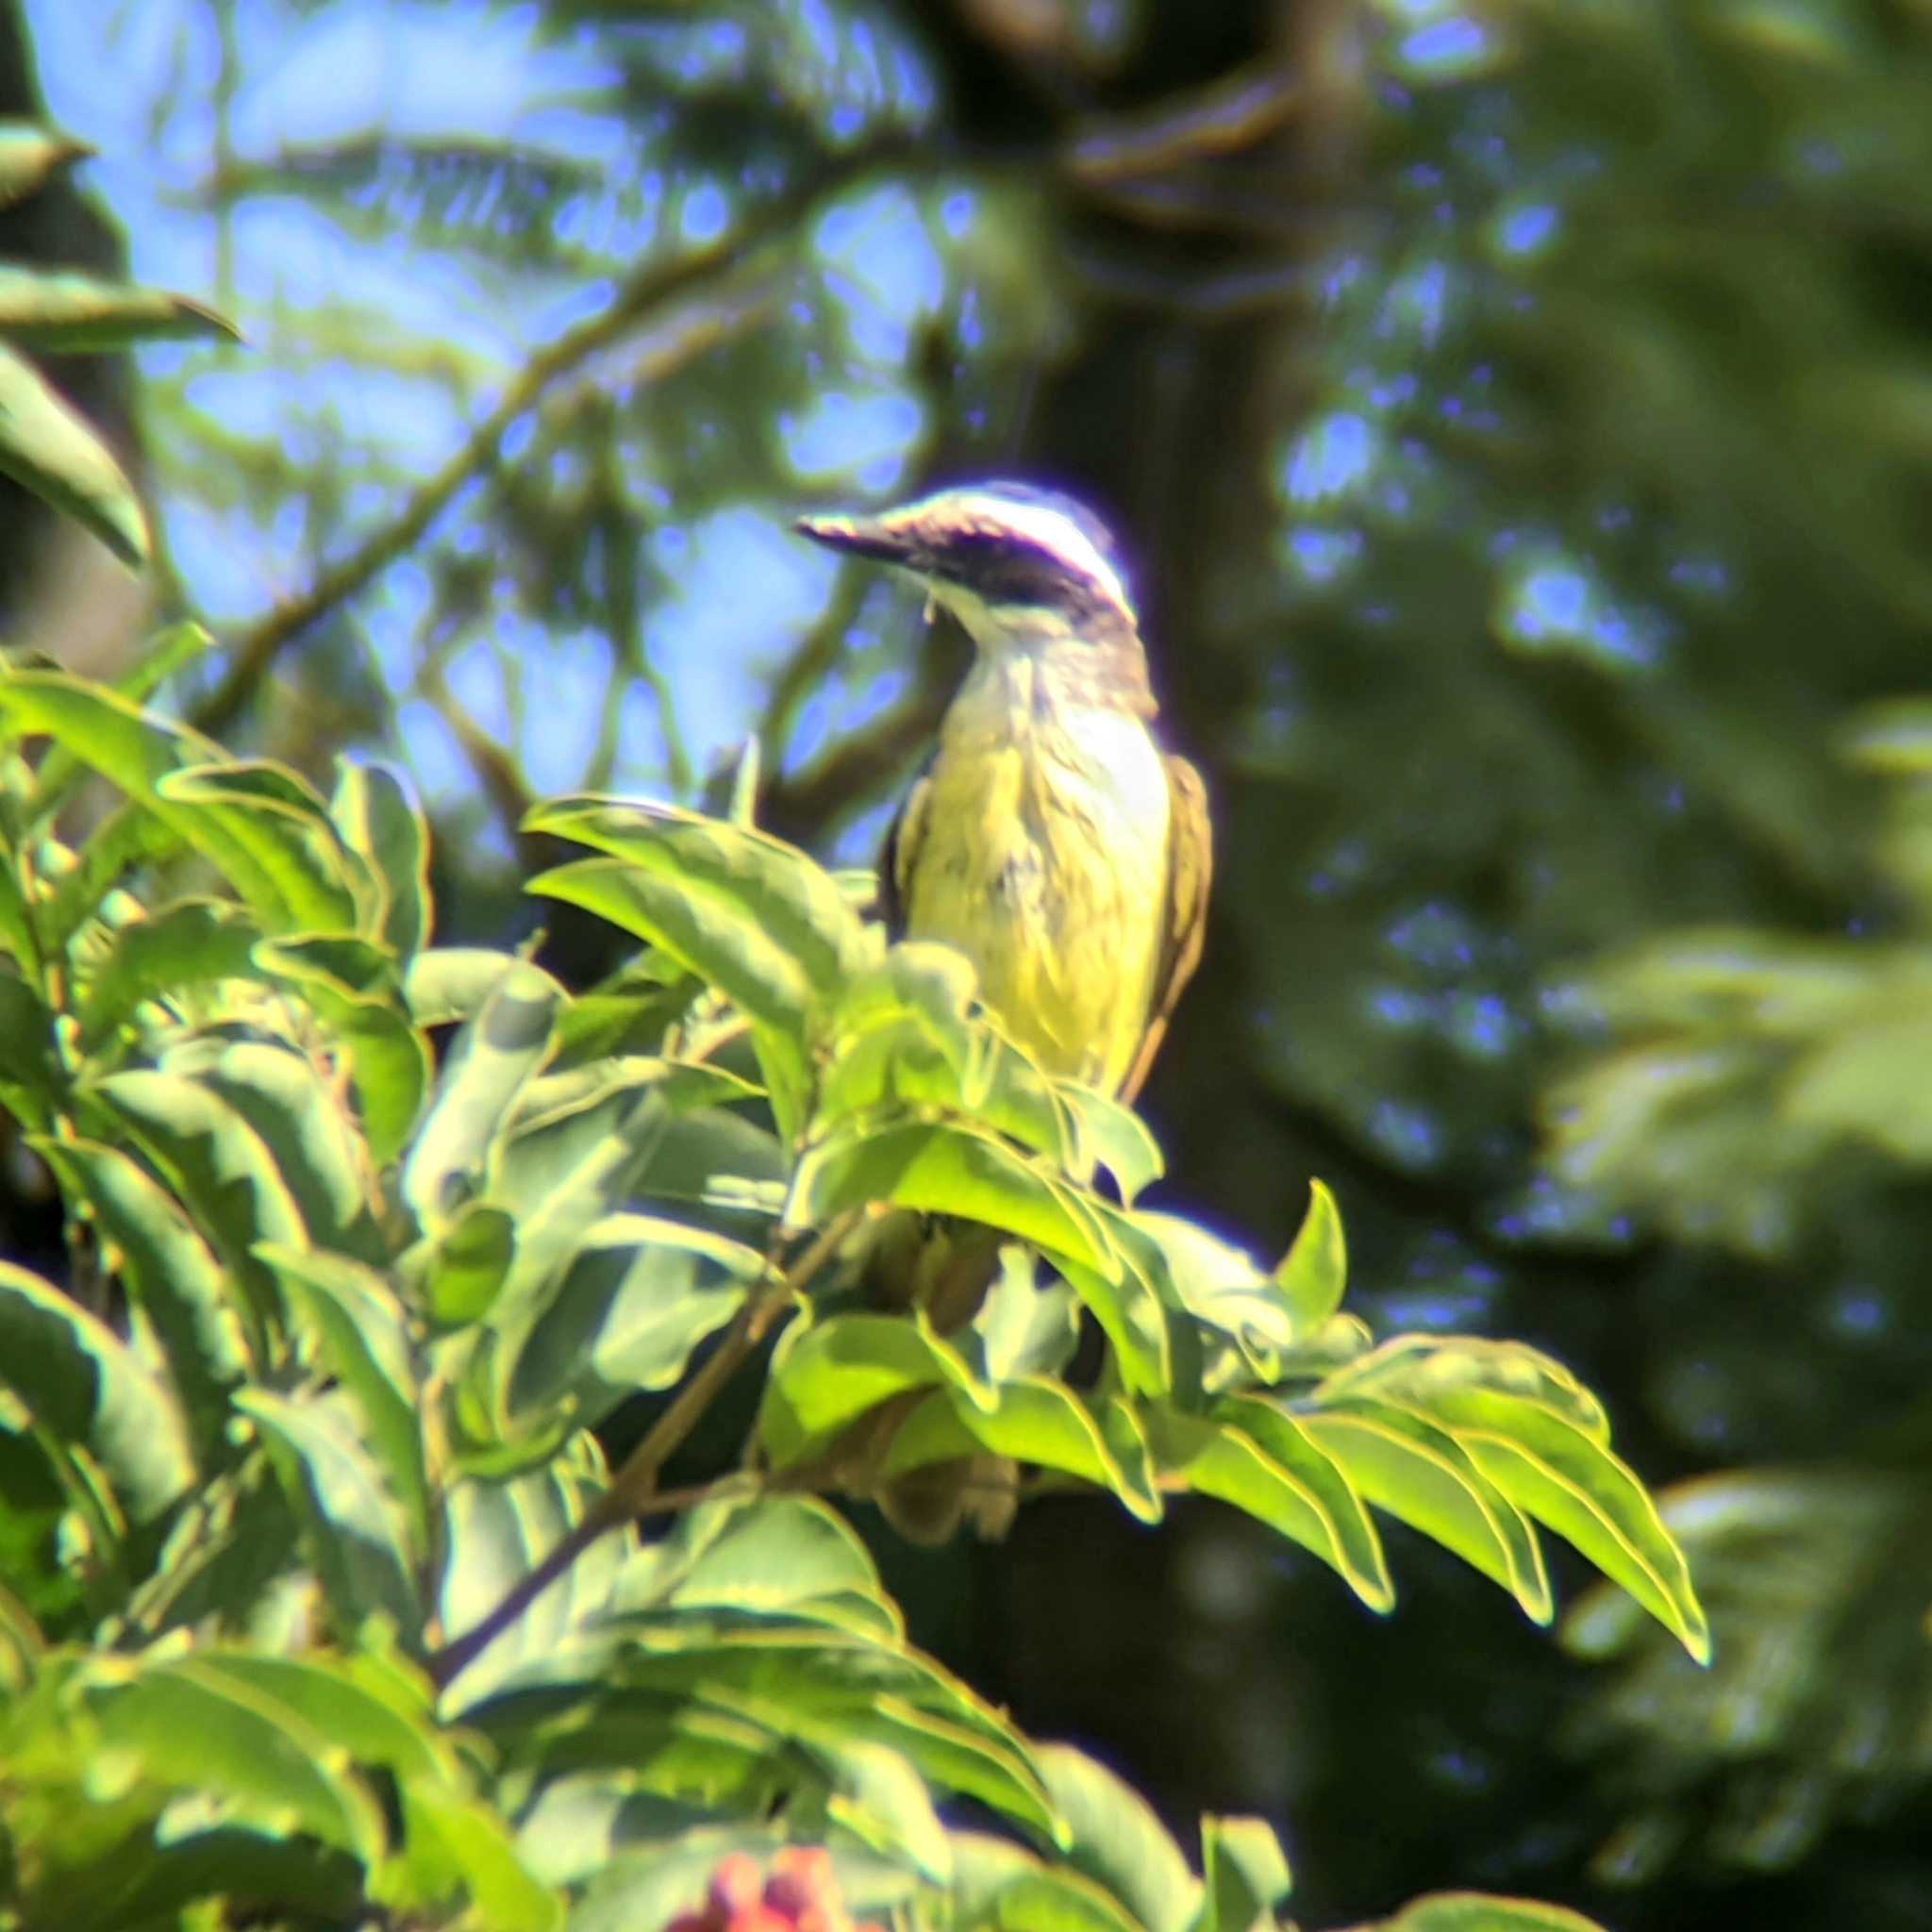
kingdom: Animalia
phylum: Chordata
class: Aves
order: Passeriformes
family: Tyrannidae
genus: Pitangus
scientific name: Pitangus sulphuratus
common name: Great kiskadee
